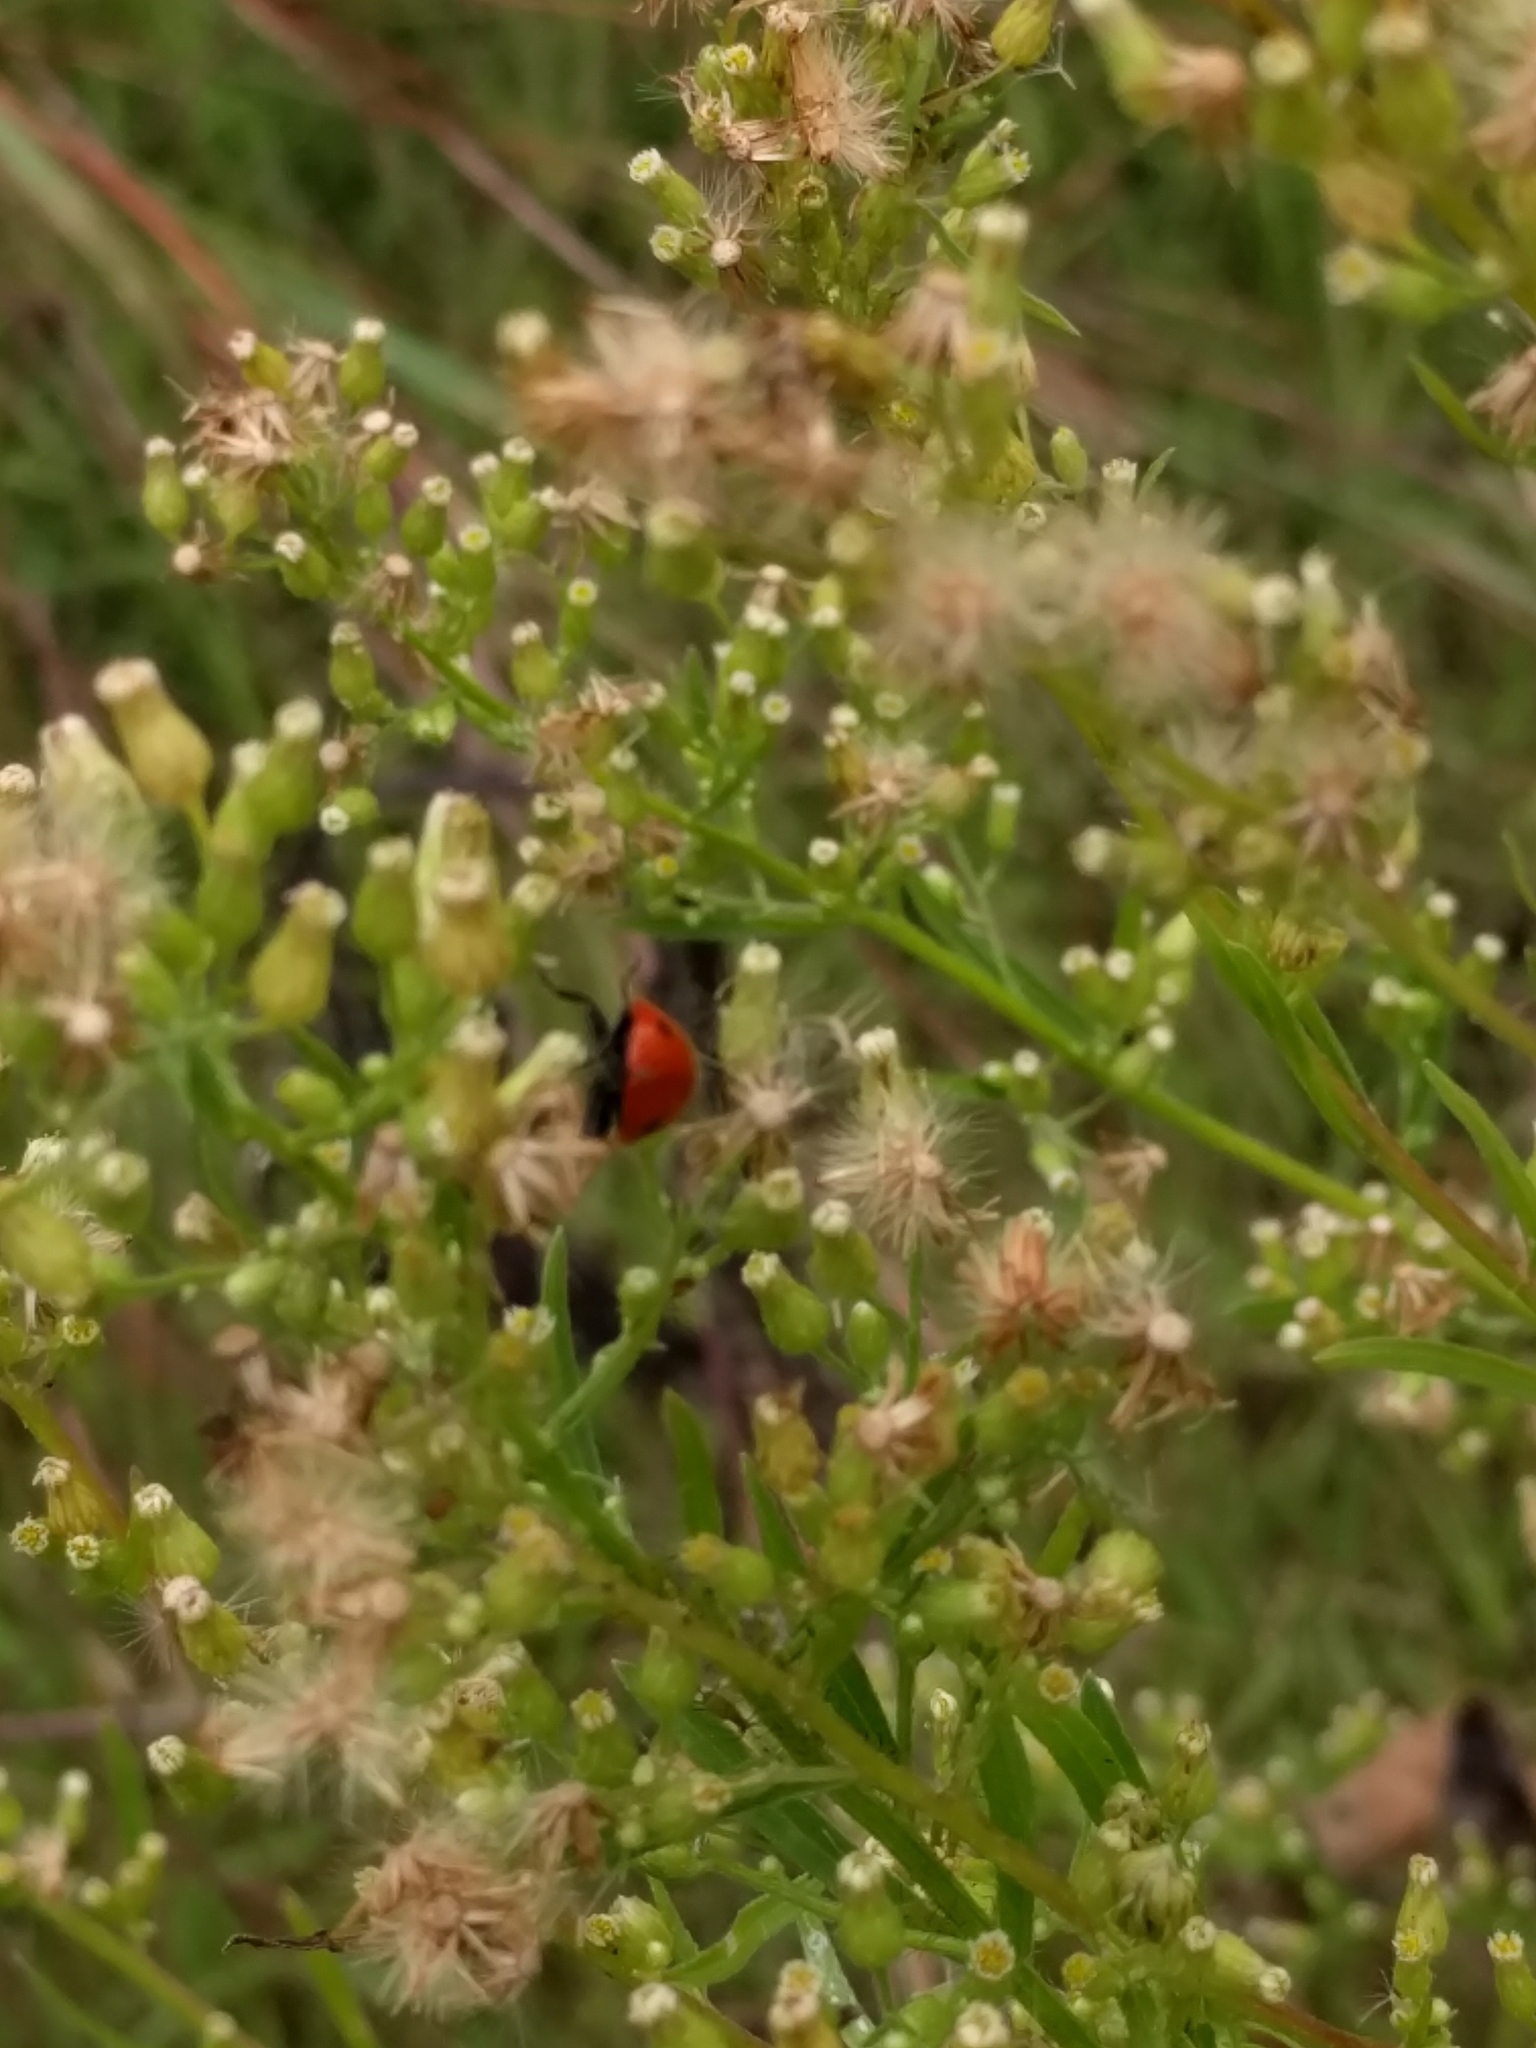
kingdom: Animalia
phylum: Arthropoda
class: Insecta
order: Coleoptera
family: Coccinellidae
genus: Coccinella
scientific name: Coccinella septempunctata
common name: Sevenspotted lady beetle
